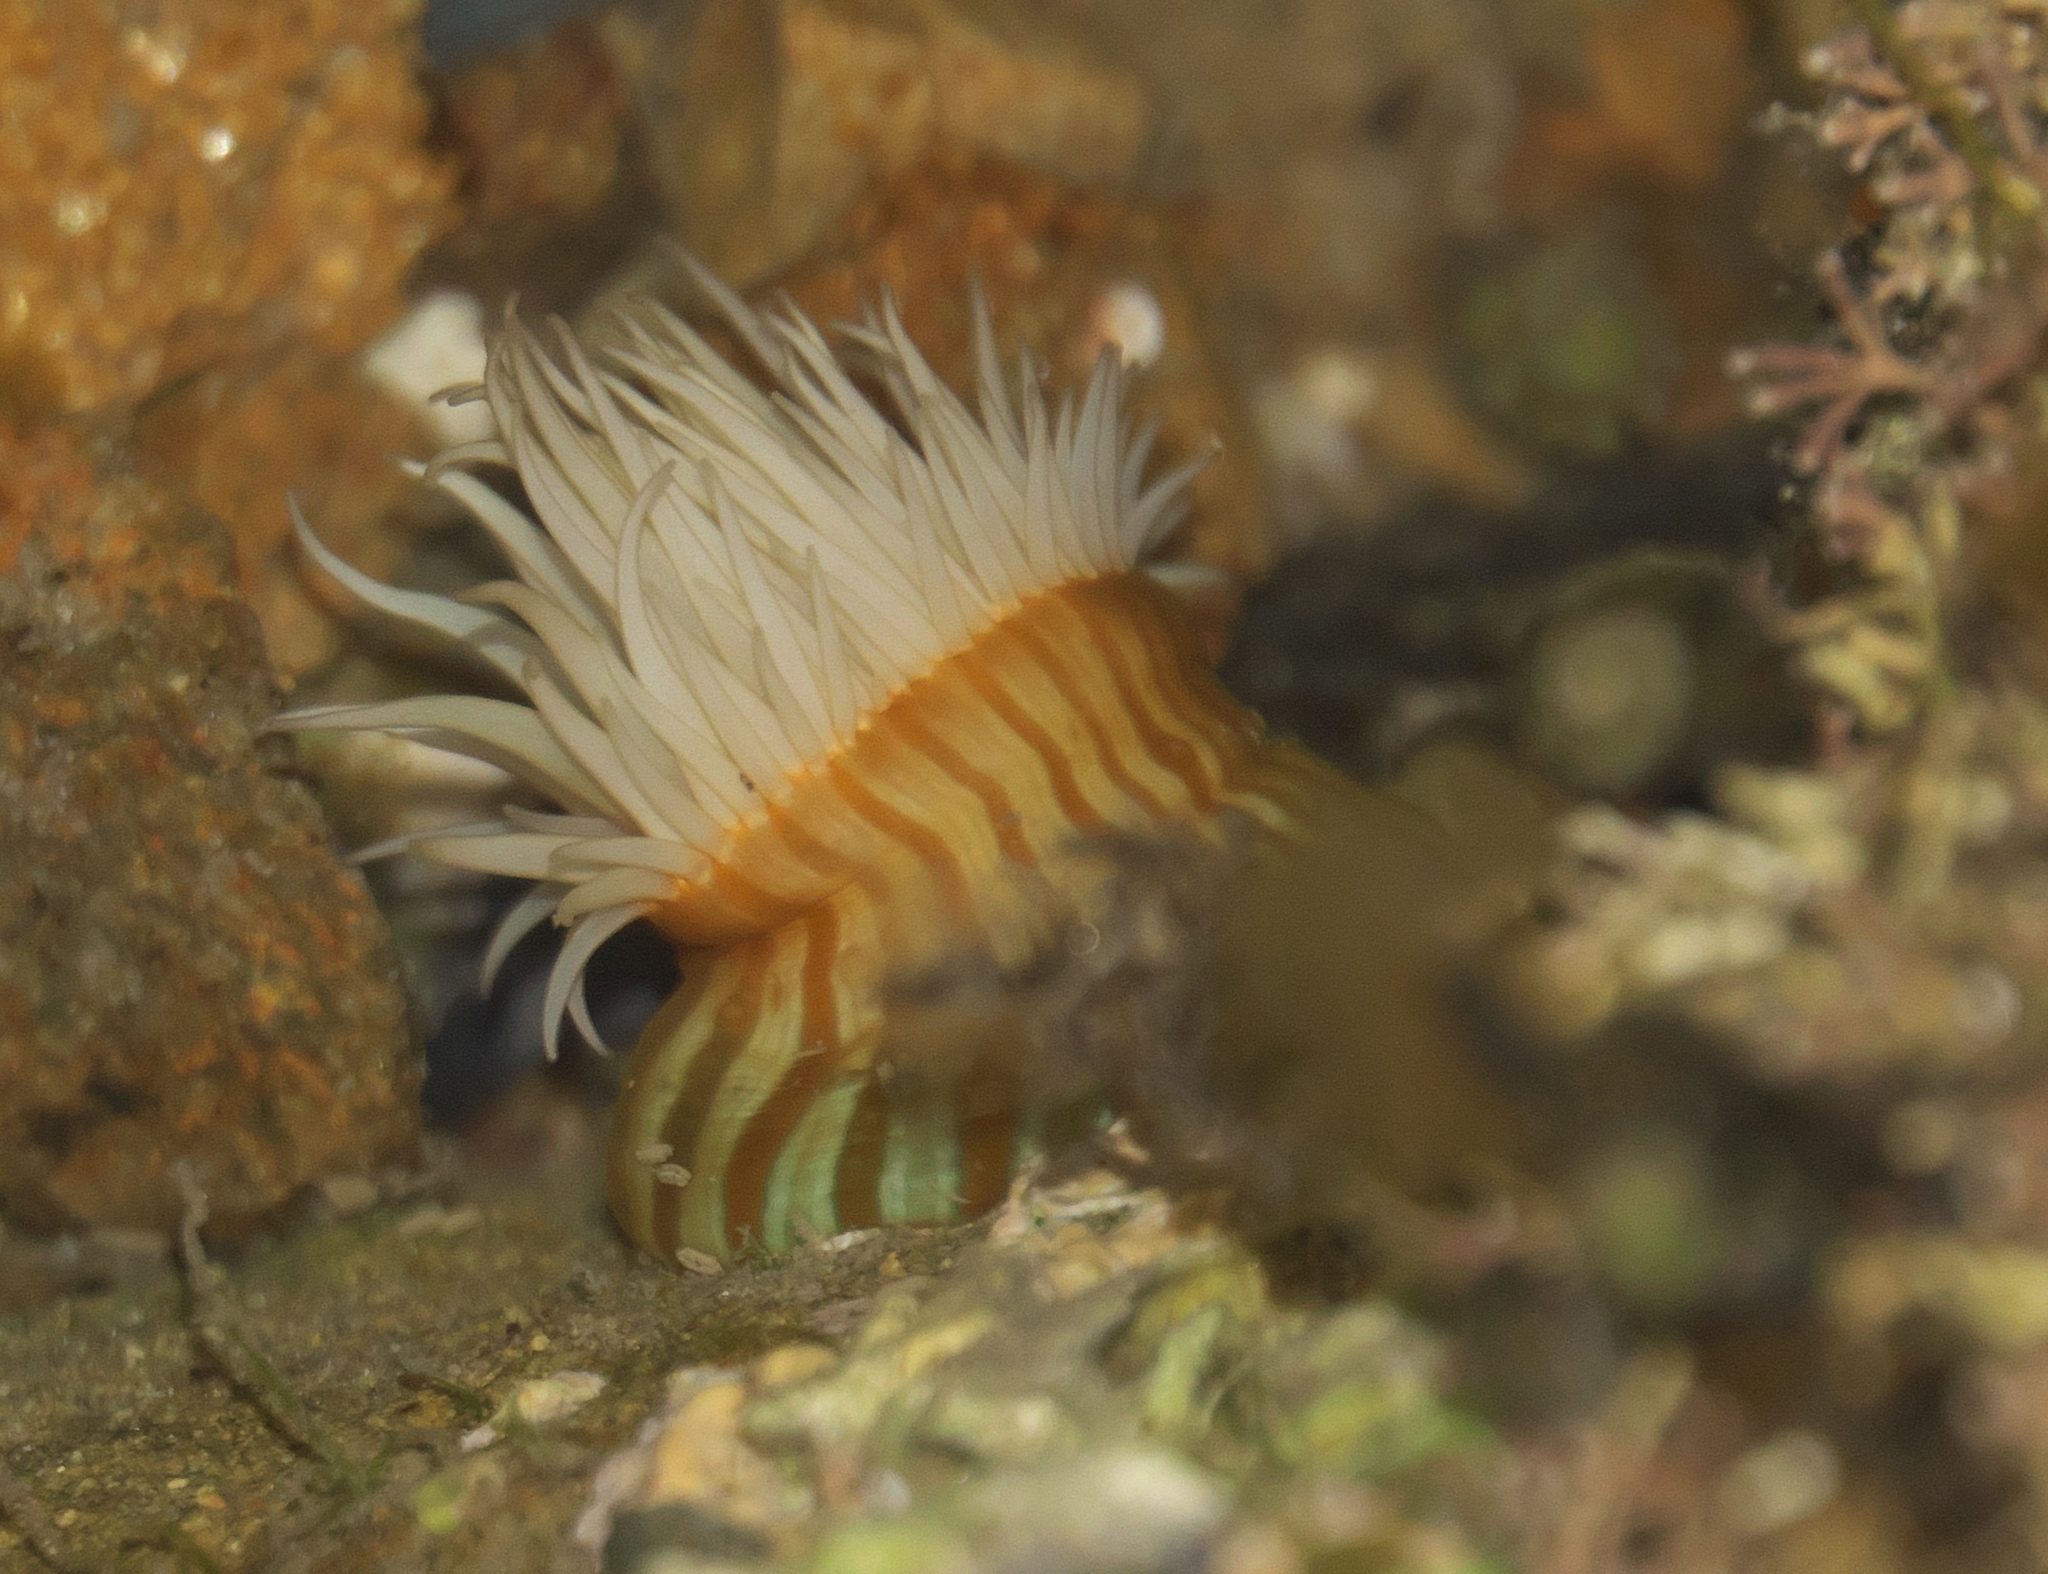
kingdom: Animalia
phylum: Cnidaria
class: Anthozoa
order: Actiniaria
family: Sagartiidae
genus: Anthothoe
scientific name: Anthothoe albocincta
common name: Orange striped anemone
